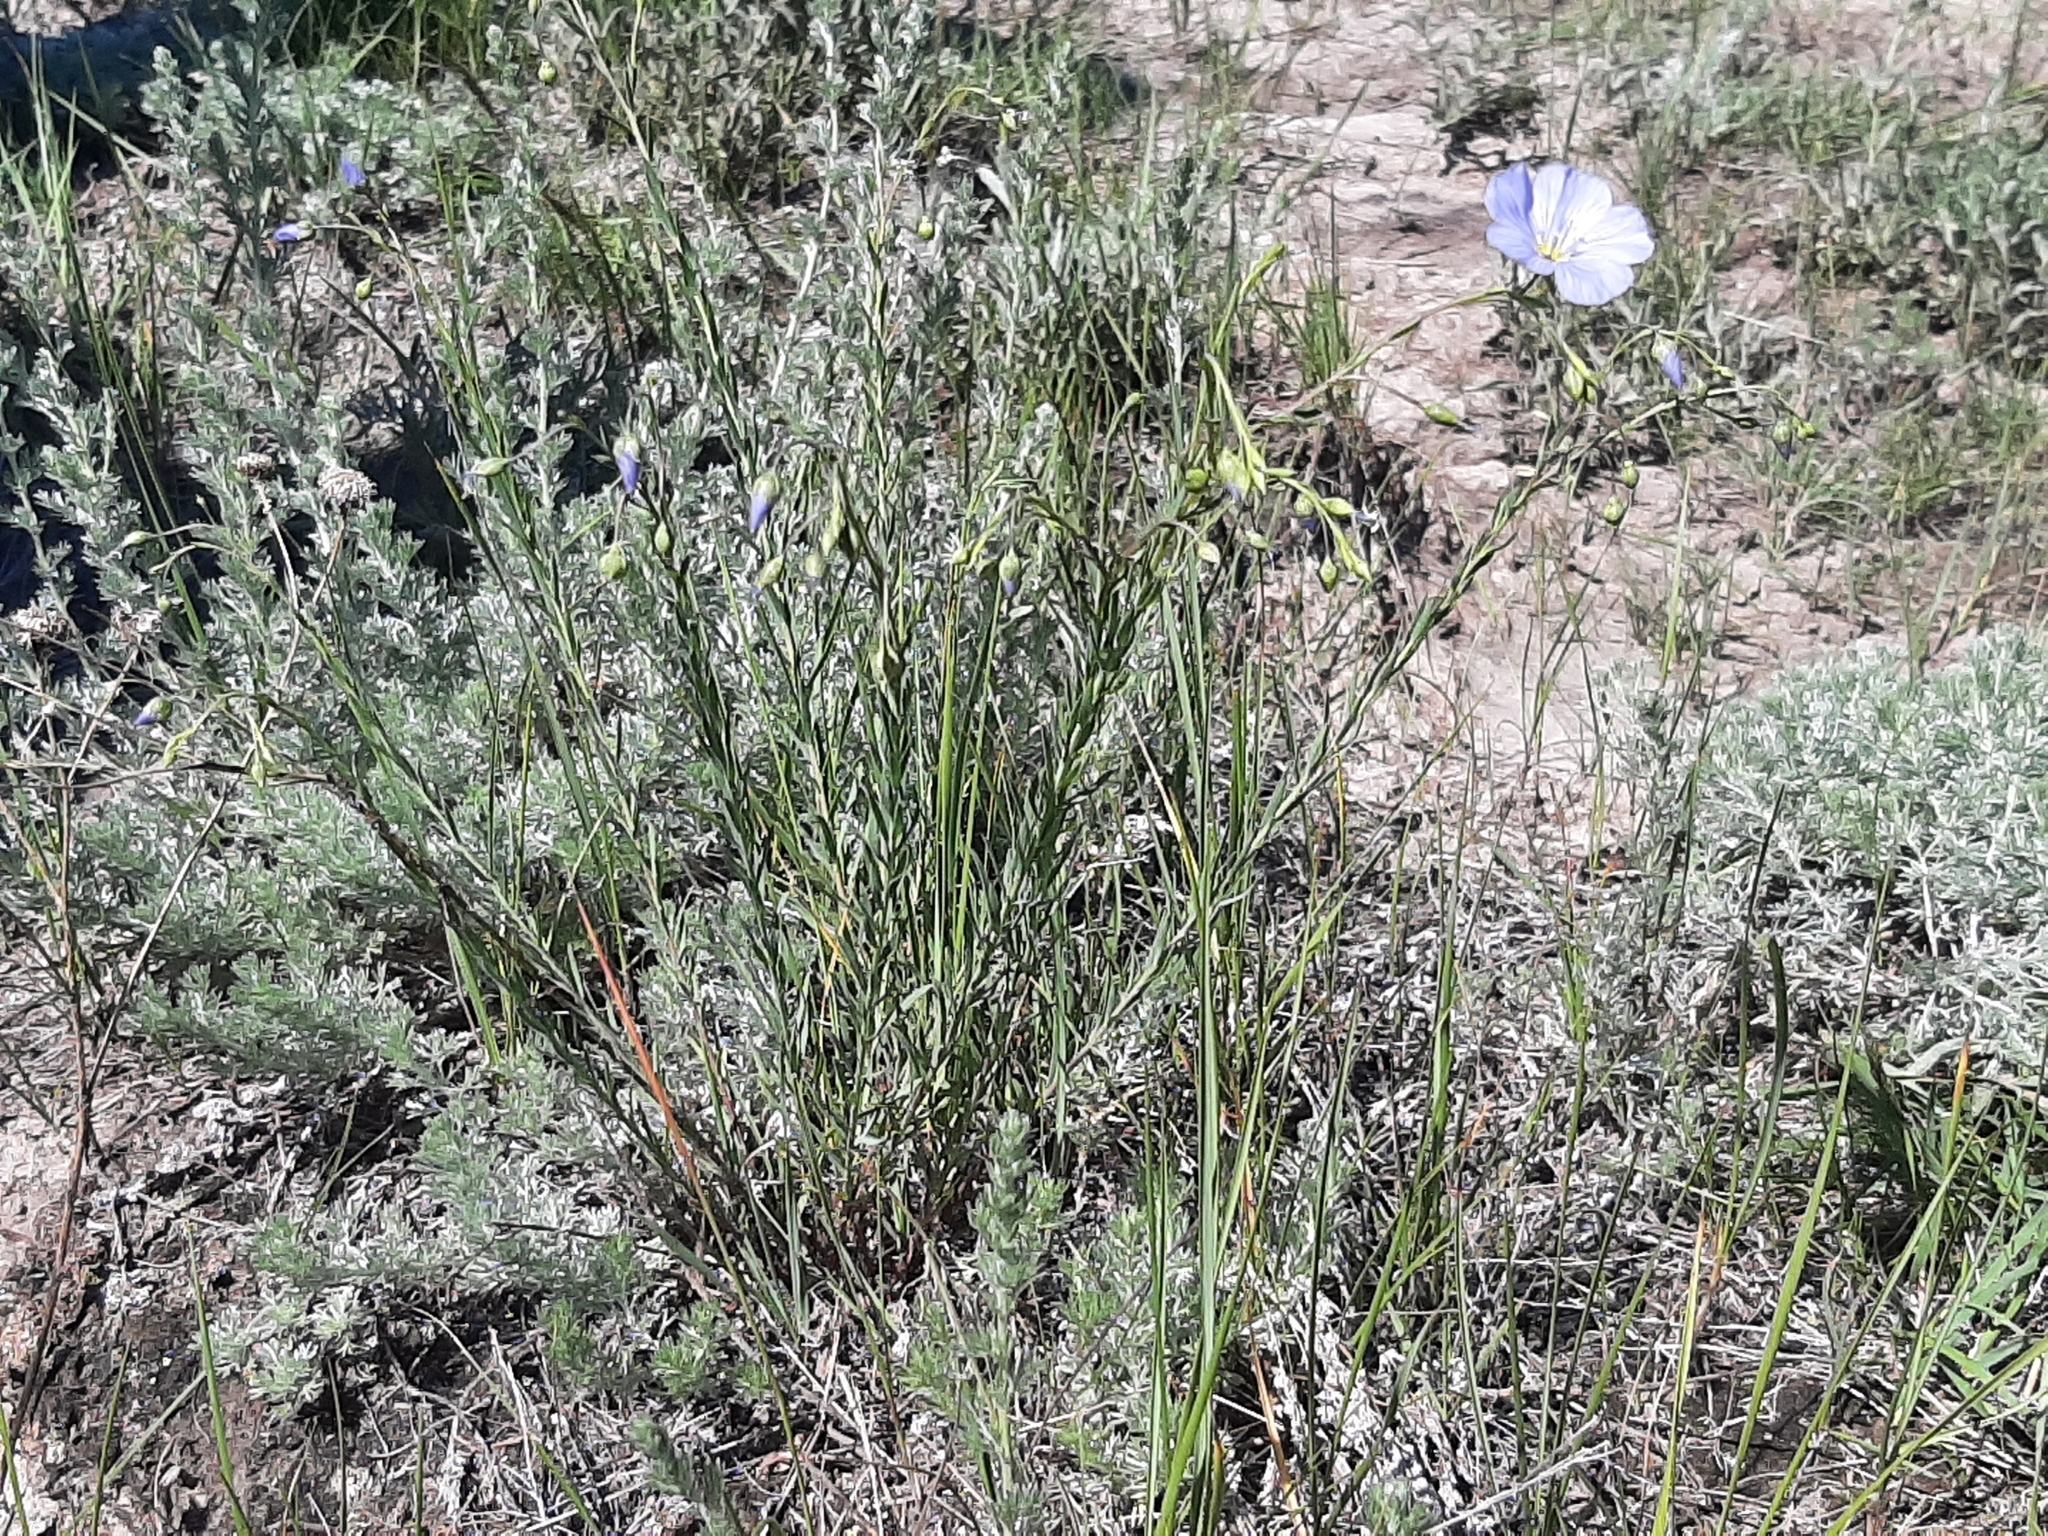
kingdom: Plantae
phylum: Tracheophyta
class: Magnoliopsida
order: Malpighiales
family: Linaceae
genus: Linum
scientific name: Linum lewisii
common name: Prairie flax
